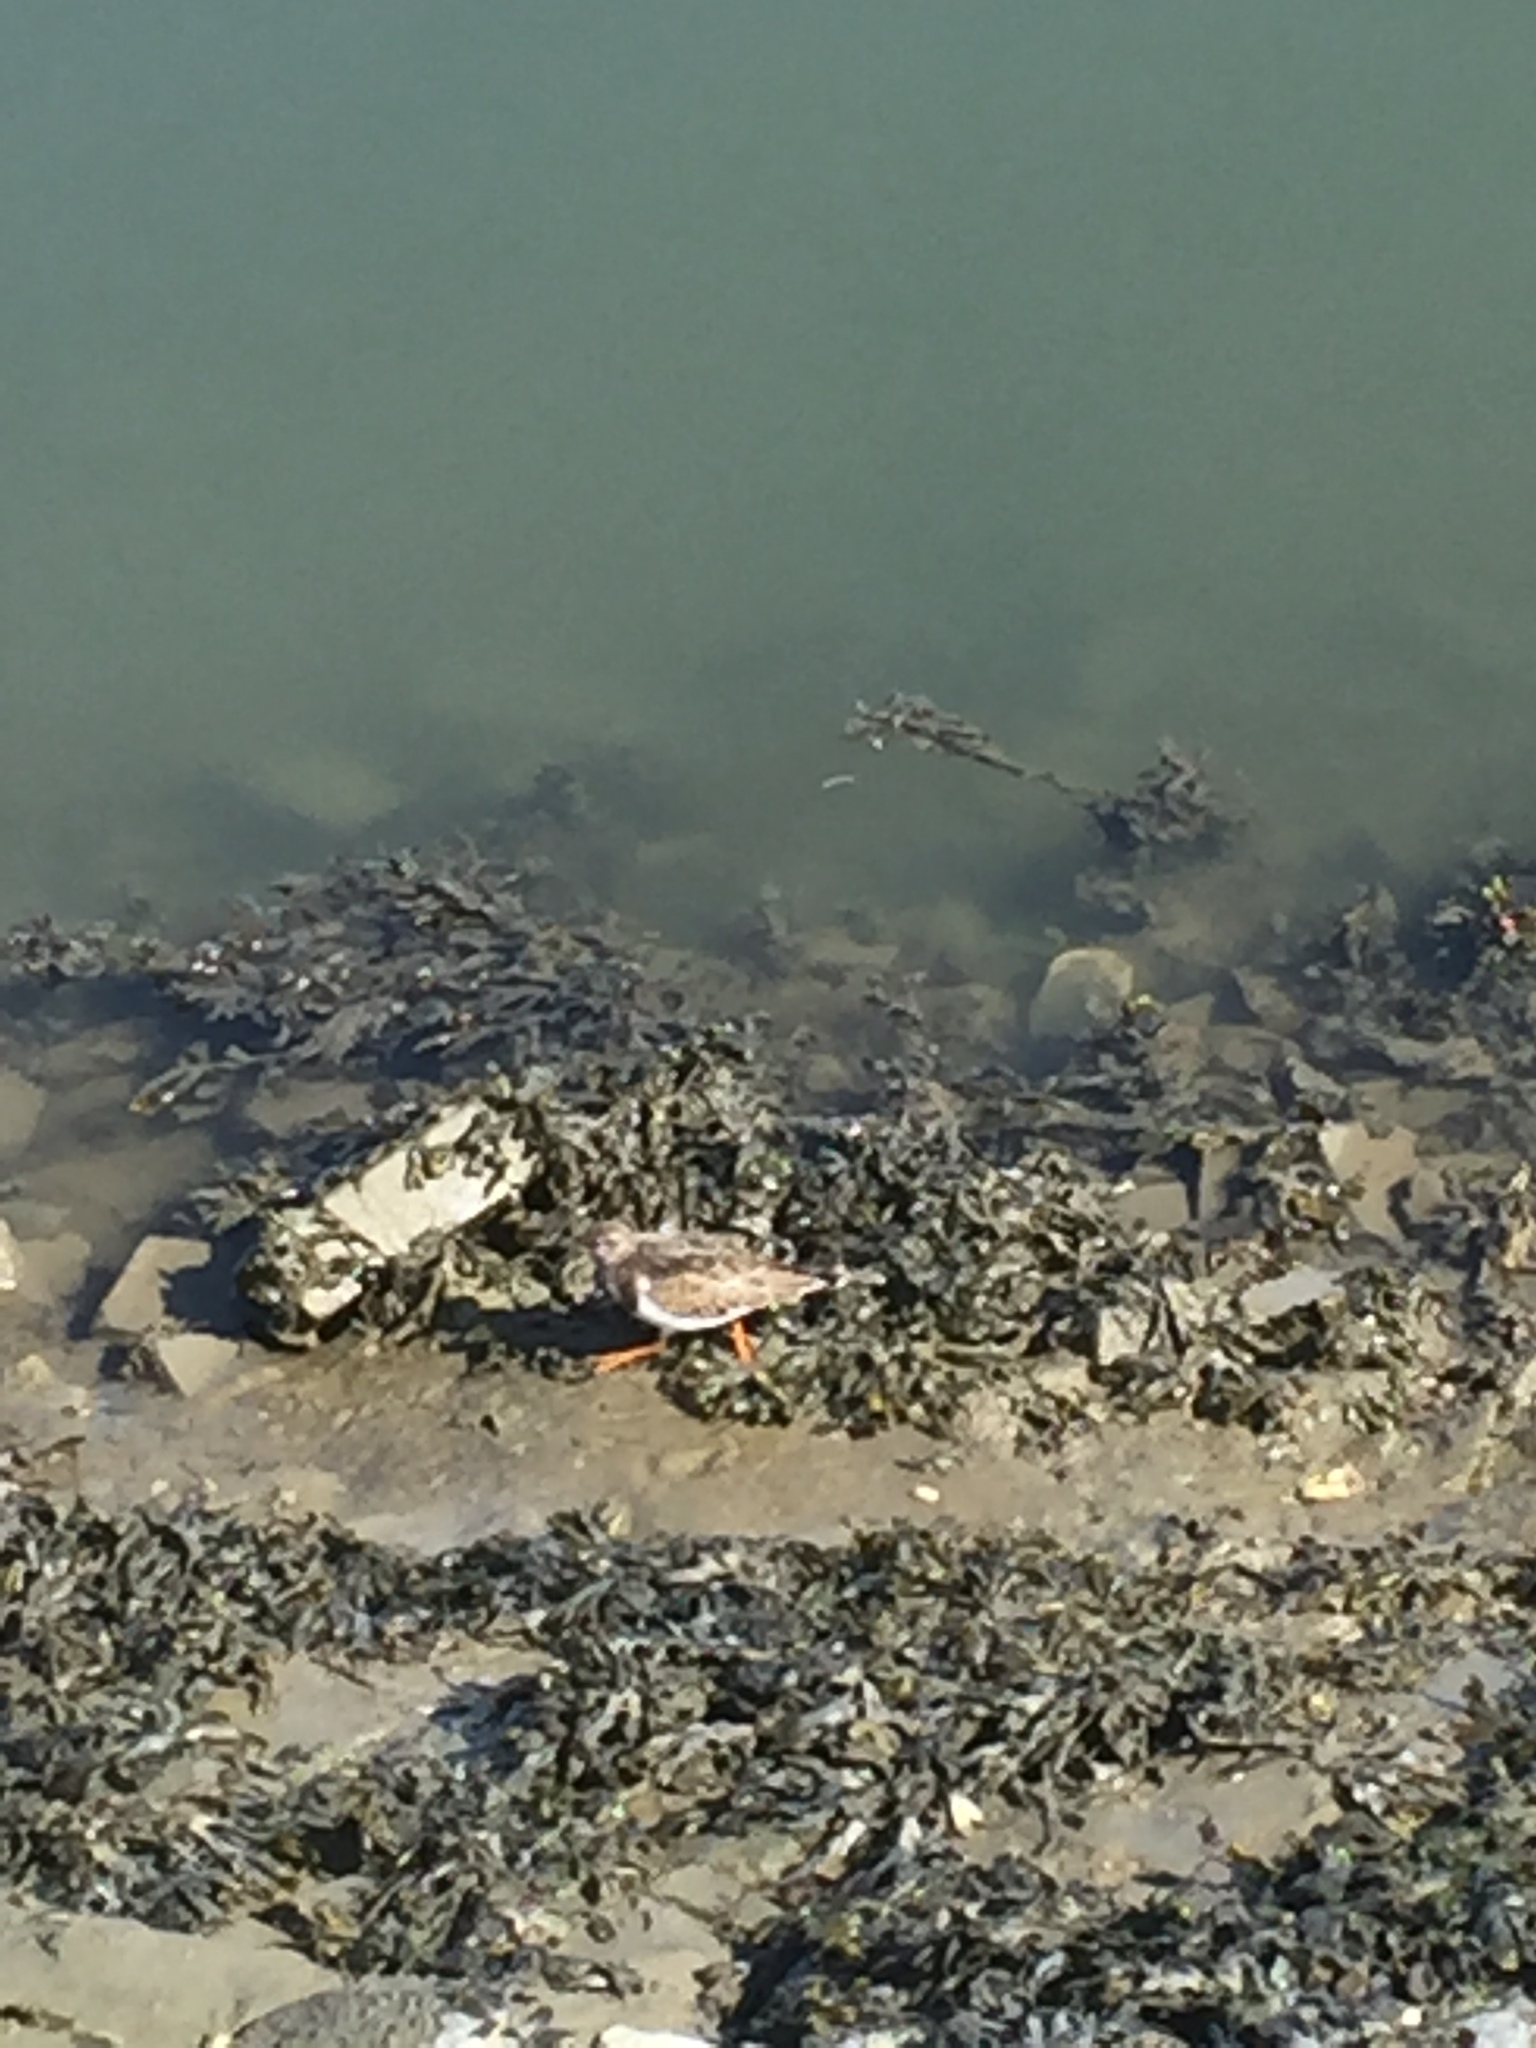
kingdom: Animalia
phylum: Chordata
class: Aves
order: Charadriiformes
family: Scolopacidae
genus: Arenaria
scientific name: Arenaria interpres
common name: Ruddy turnstone
